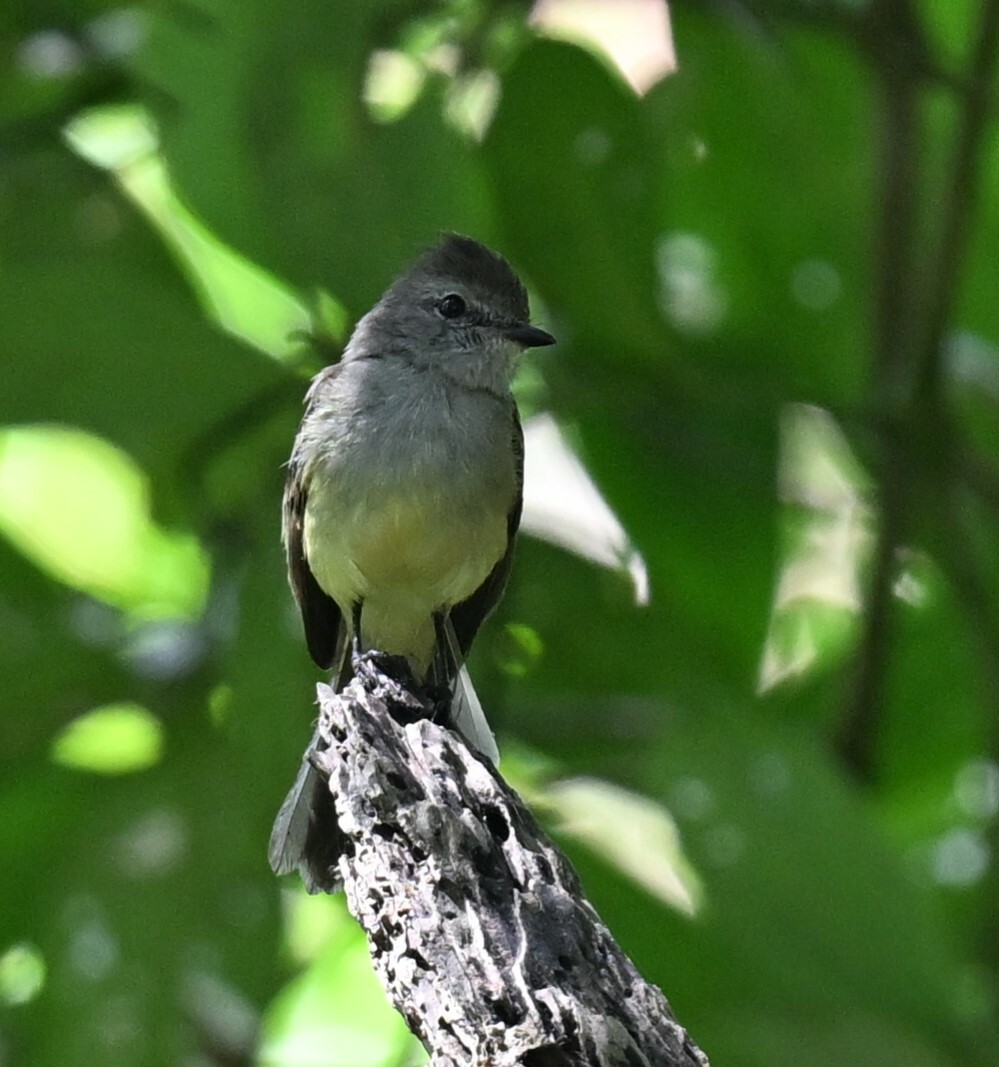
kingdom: Animalia
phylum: Chordata
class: Aves
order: Passeriformes
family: Tyrannidae
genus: Sublegatus
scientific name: Sublegatus arenarum
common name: Northern scrub-flycatcher
